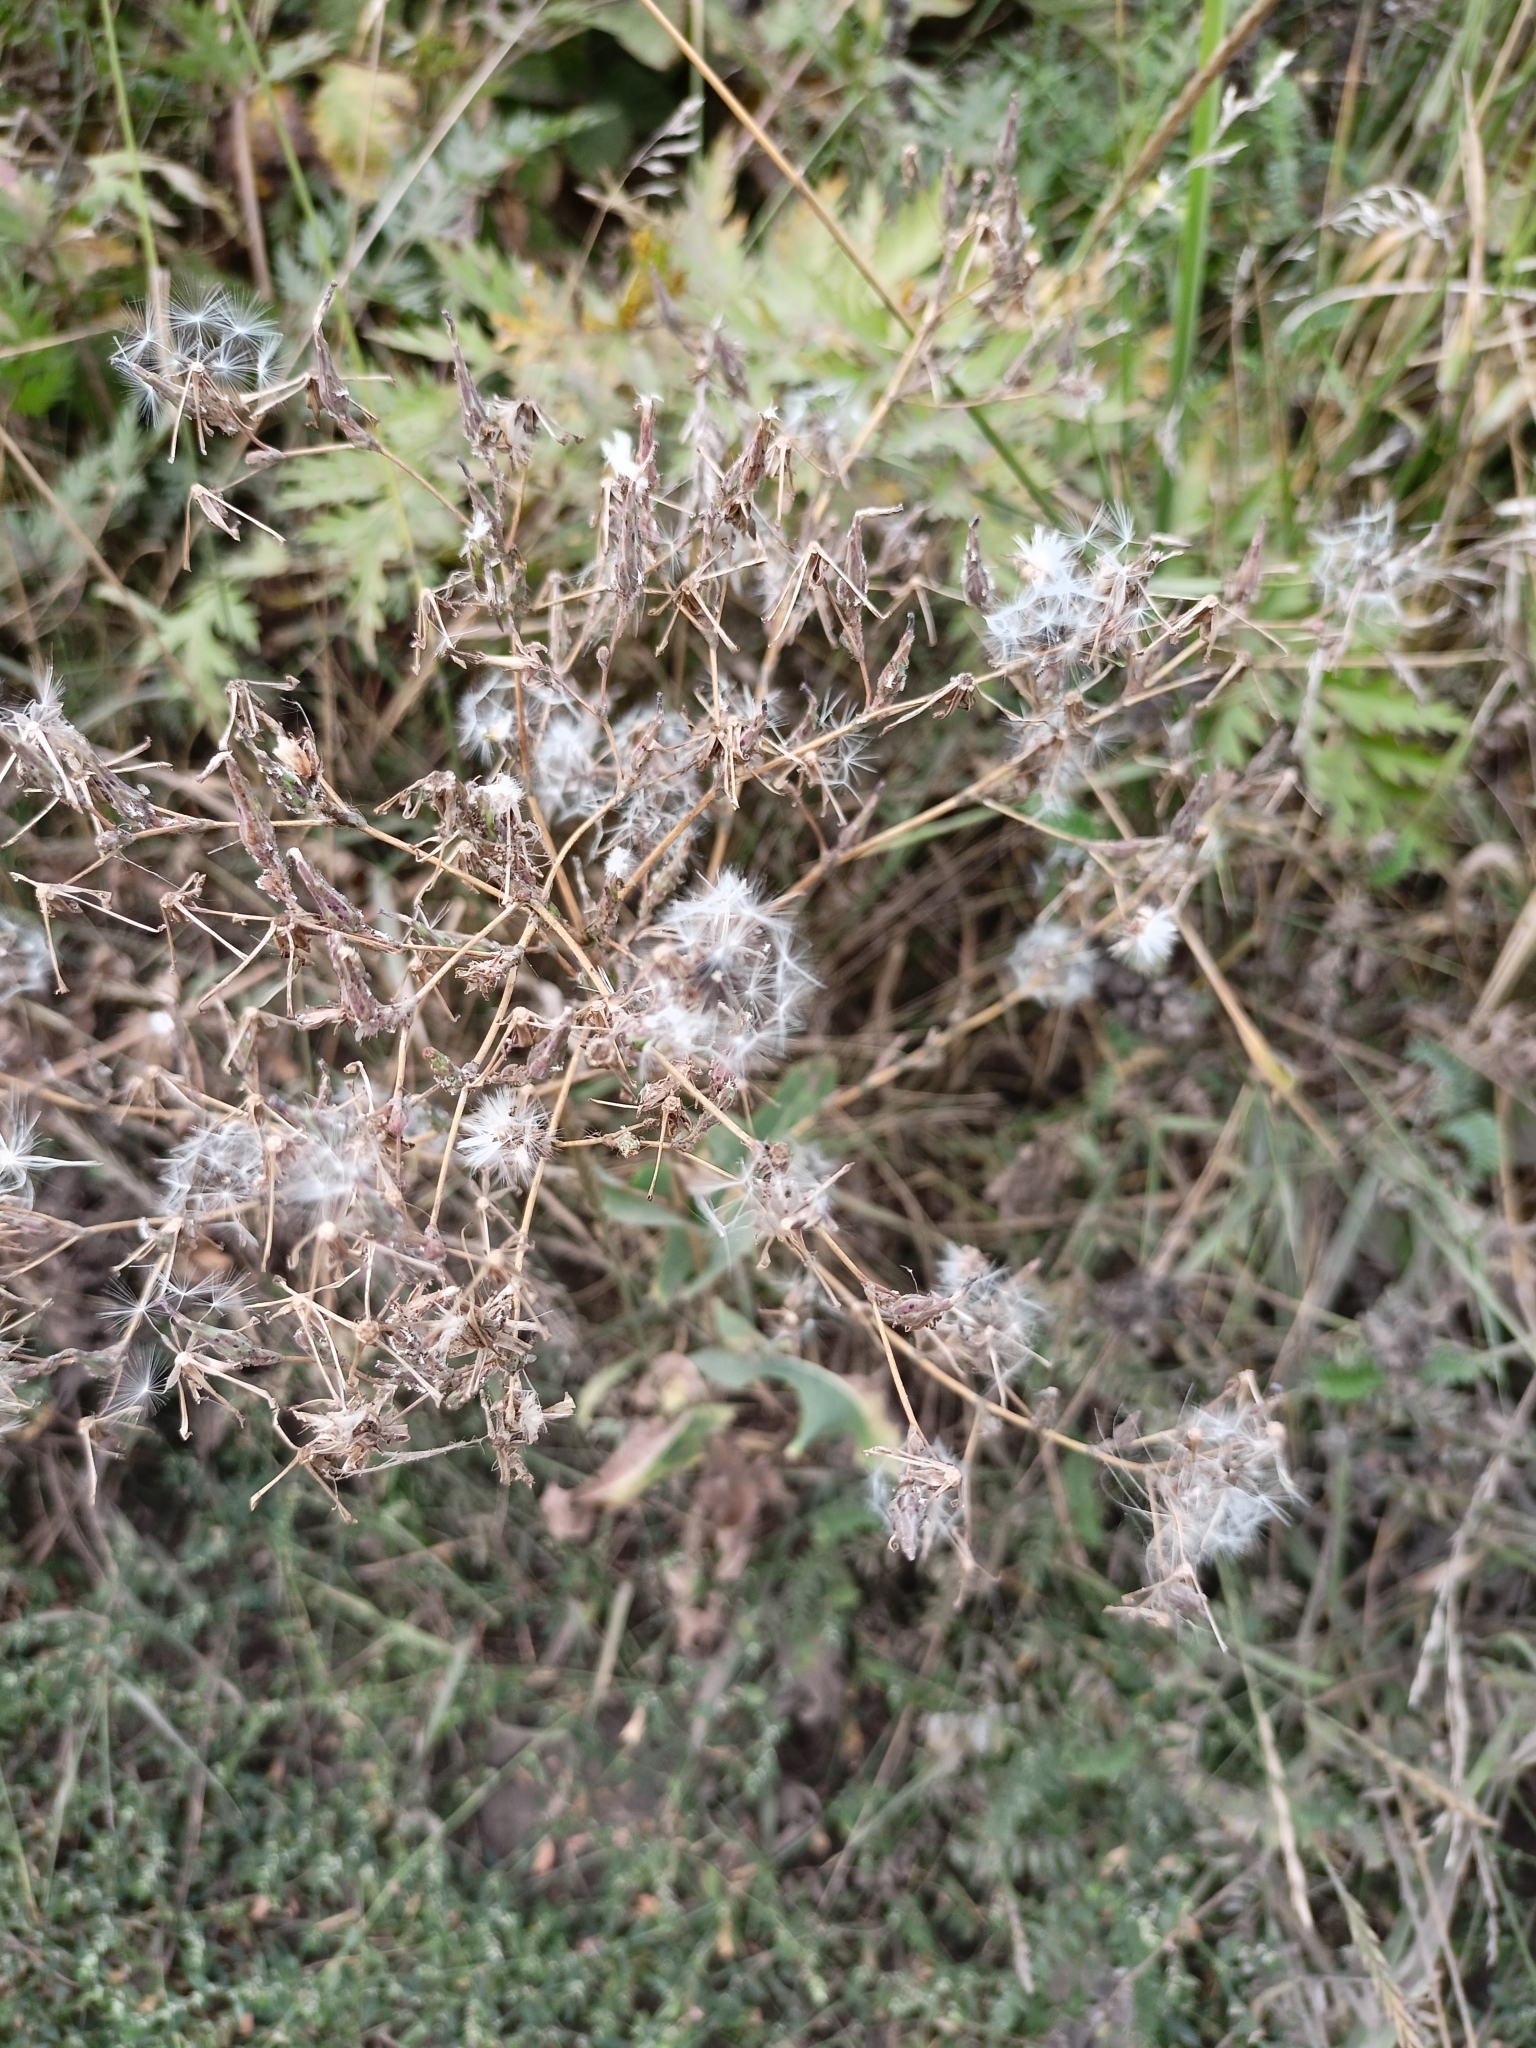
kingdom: Plantae
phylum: Tracheophyta
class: Magnoliopsida
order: Asterales
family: Asteraceae
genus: Lactuca
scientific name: Lactuca serriola
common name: Prickly lettuce
